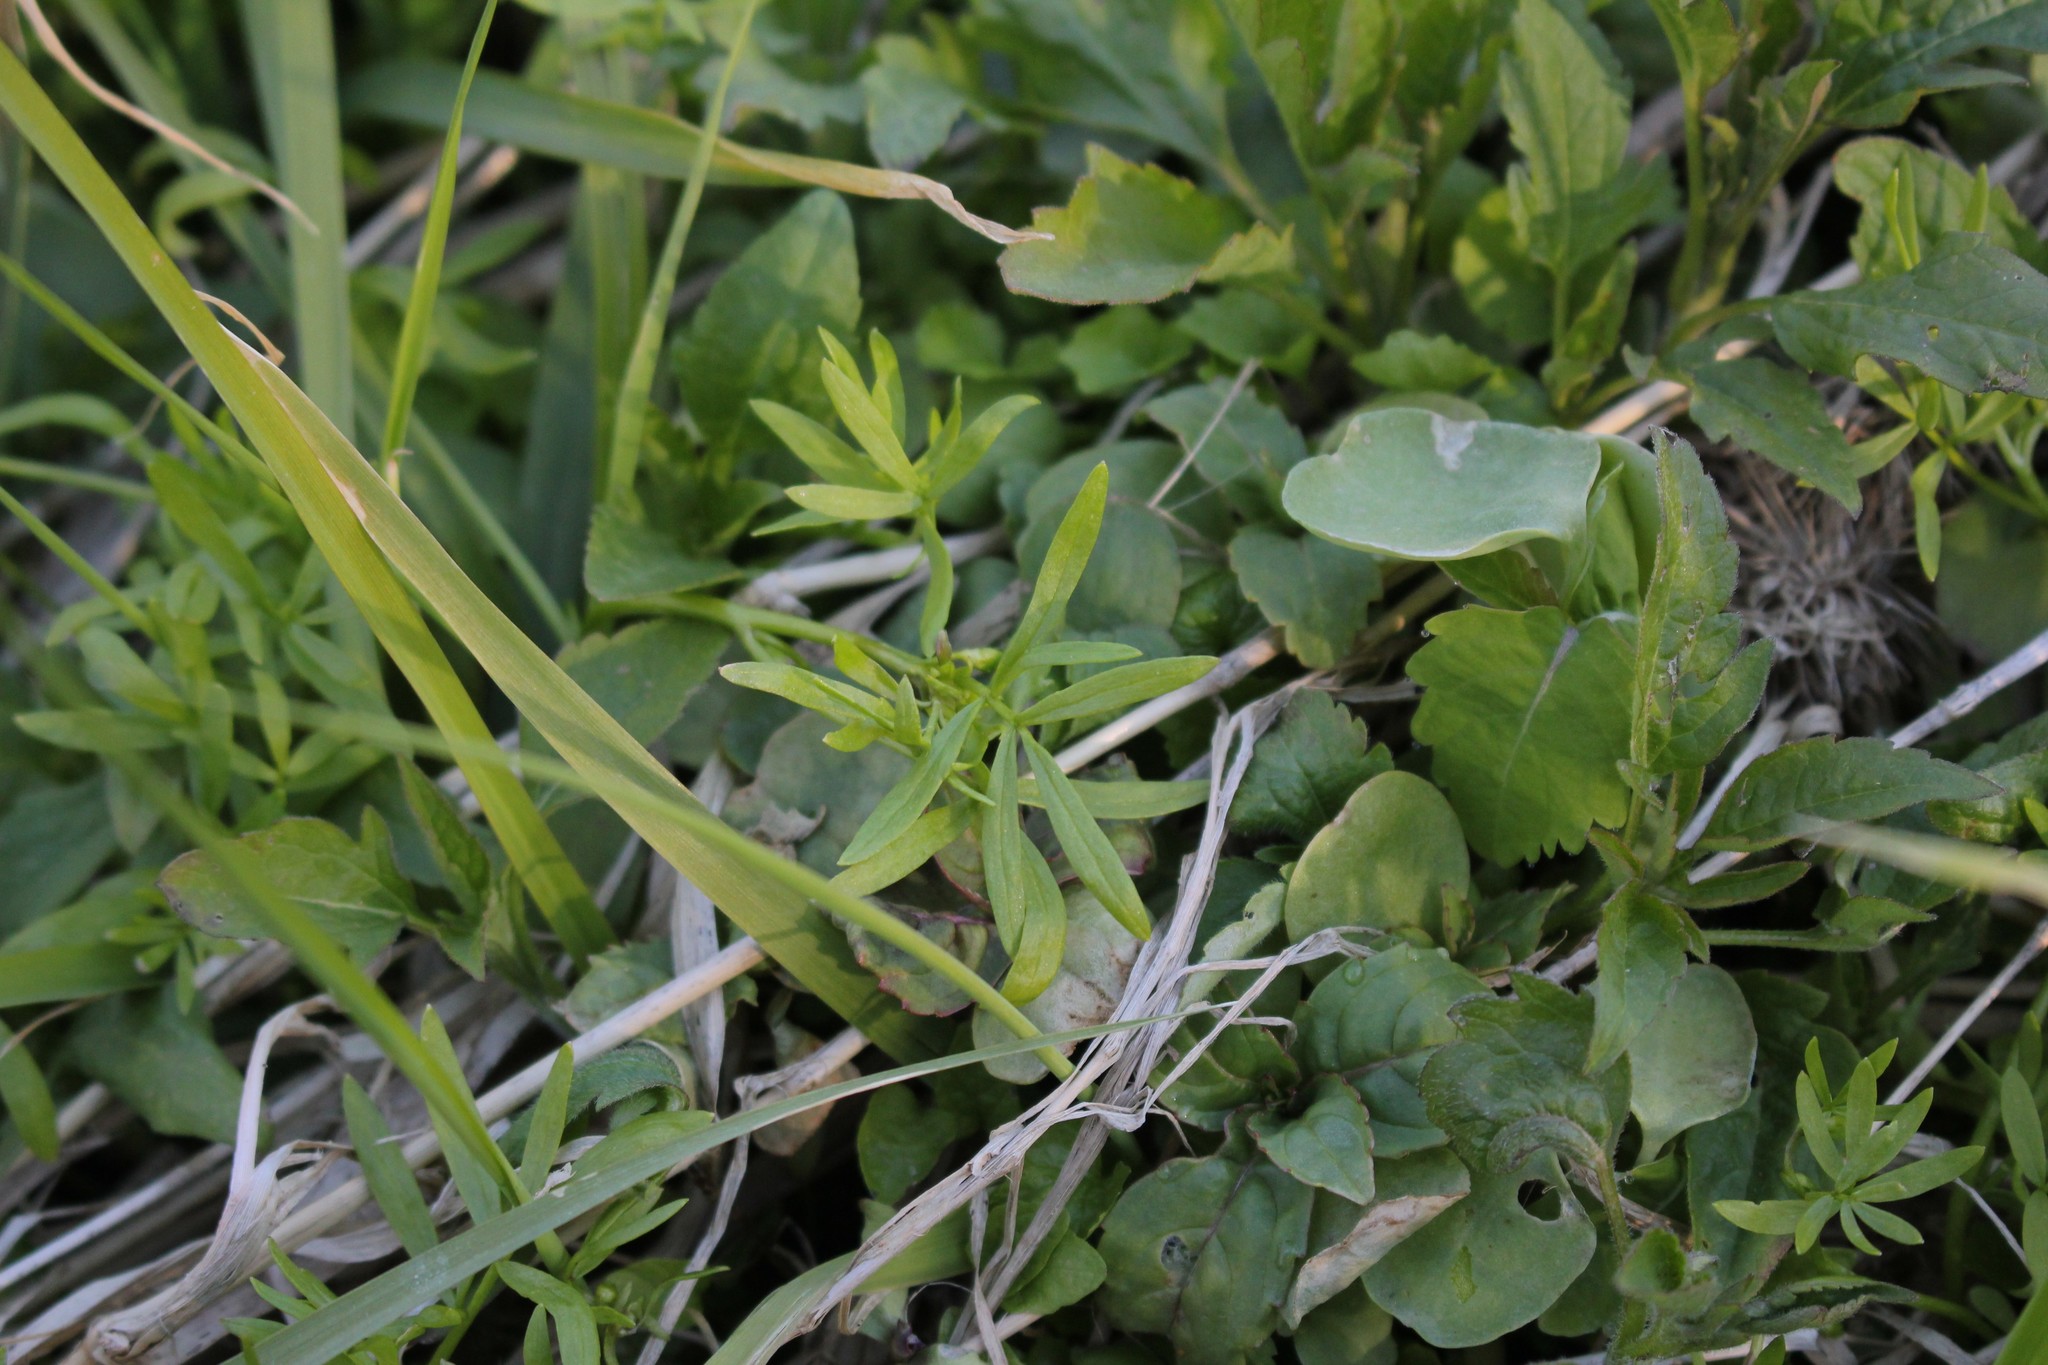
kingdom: Plantae
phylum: Tracheophyta
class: Magnoliopsida
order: Brassicales
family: Limnanthaceae
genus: Floerkea
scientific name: Floerkea proserpinacoides
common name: False mermaid
